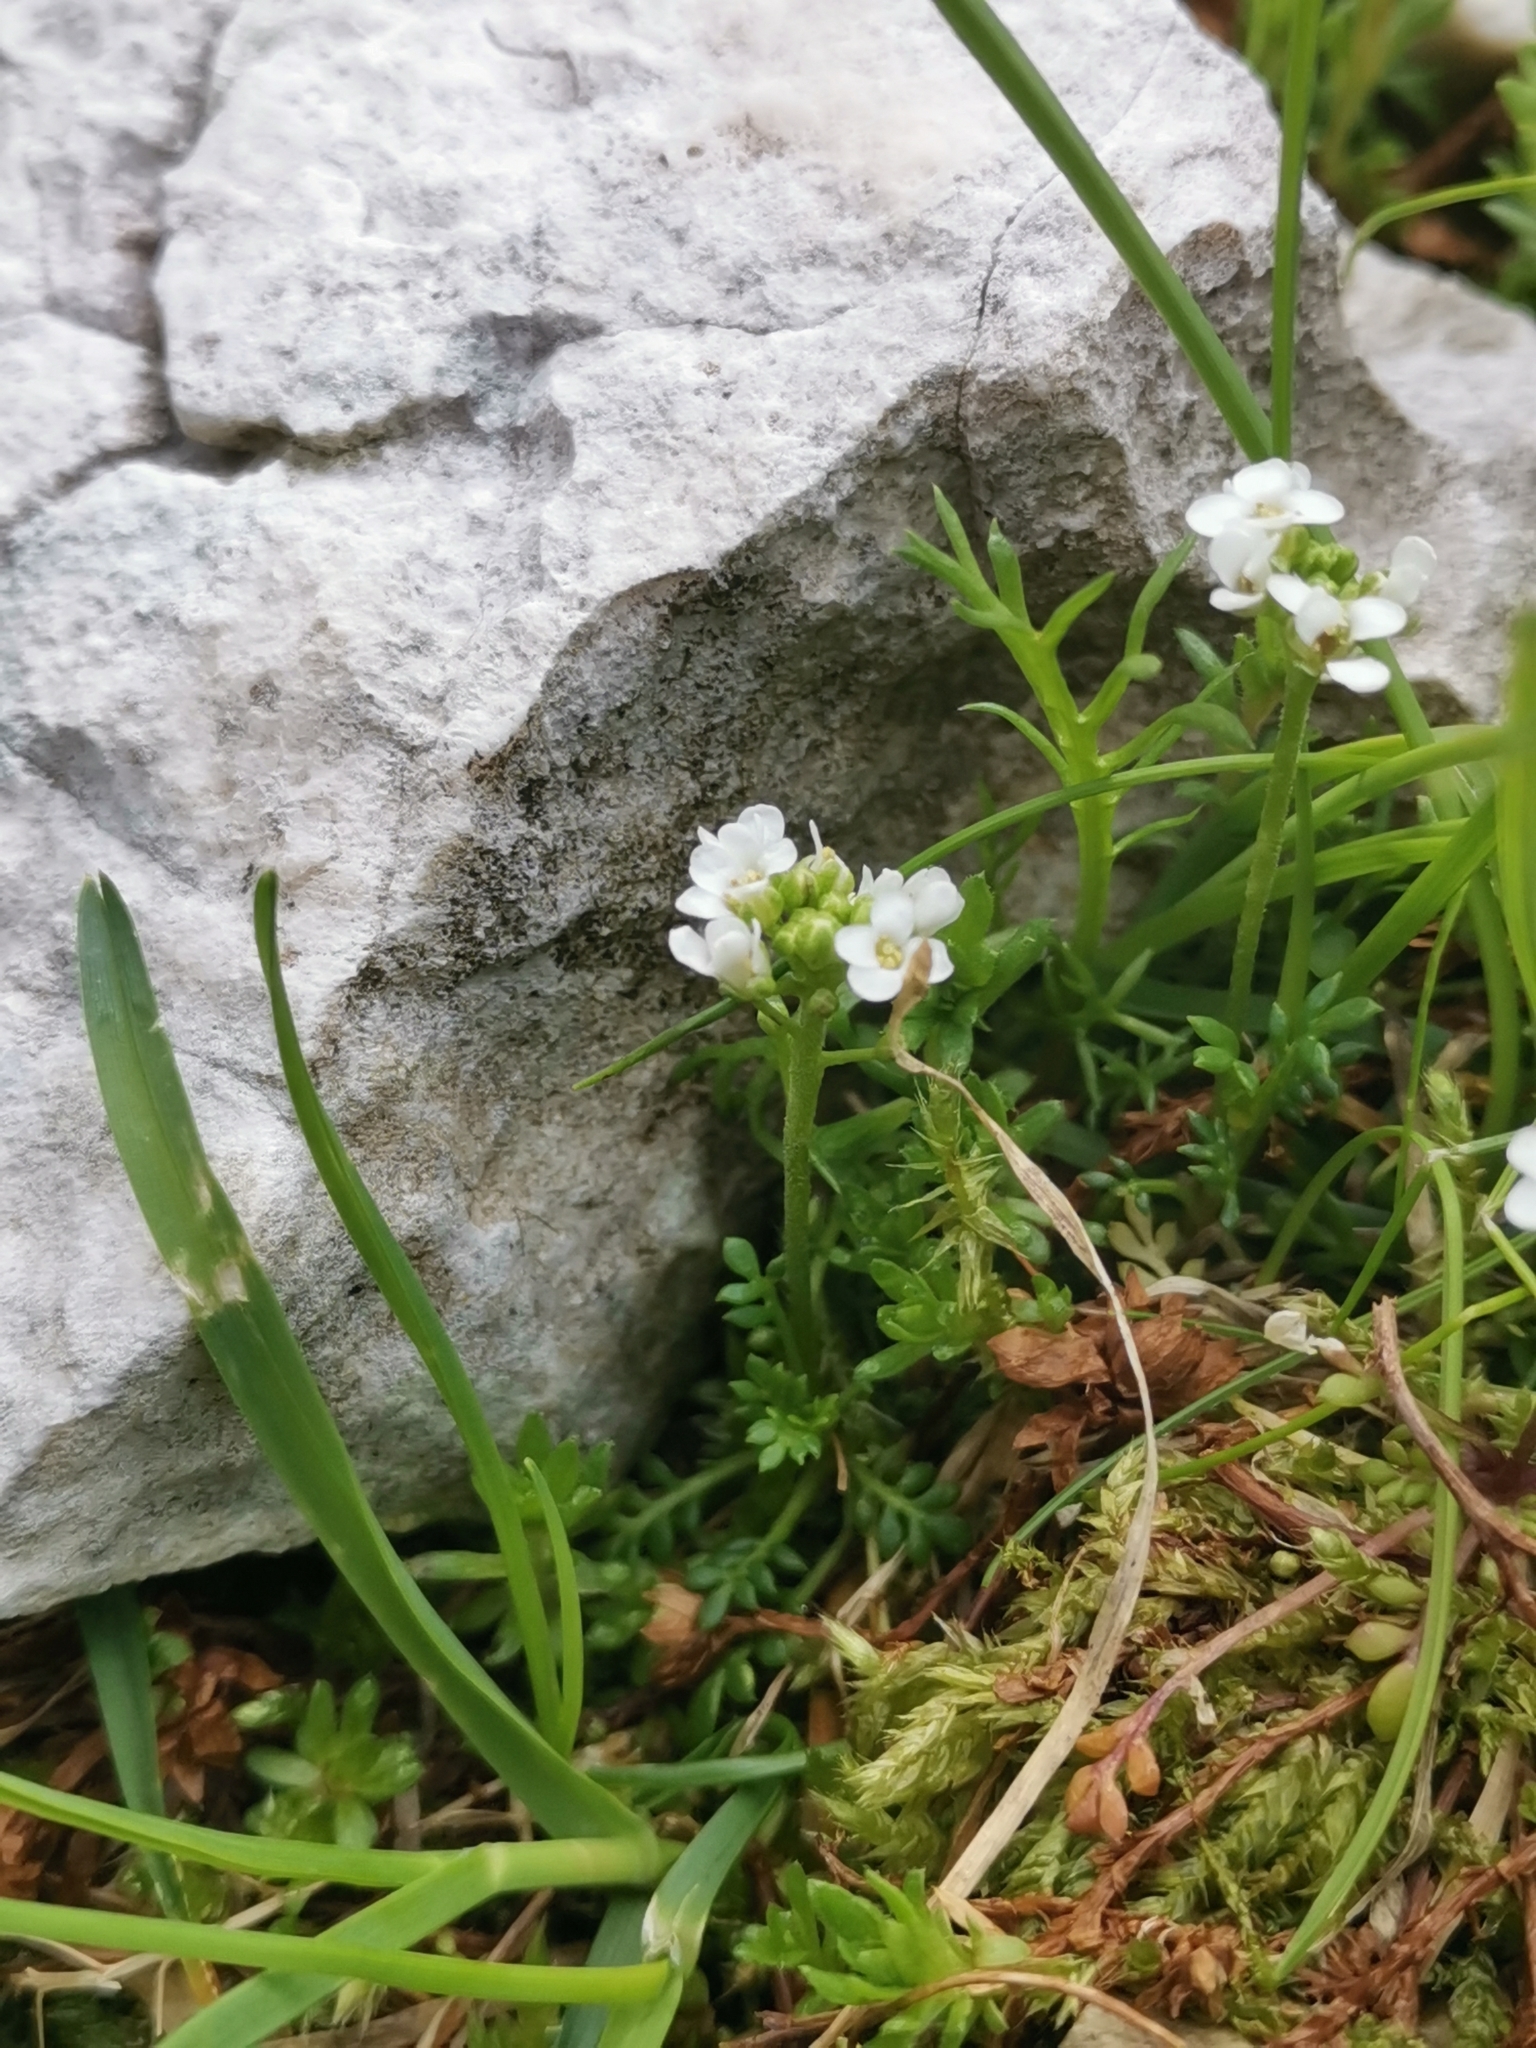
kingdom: Plantae
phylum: Tracheophyta
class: Magnoliopsida
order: Brassicales
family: Brassicaceae
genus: Hornungia
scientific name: Hornungia alpina
